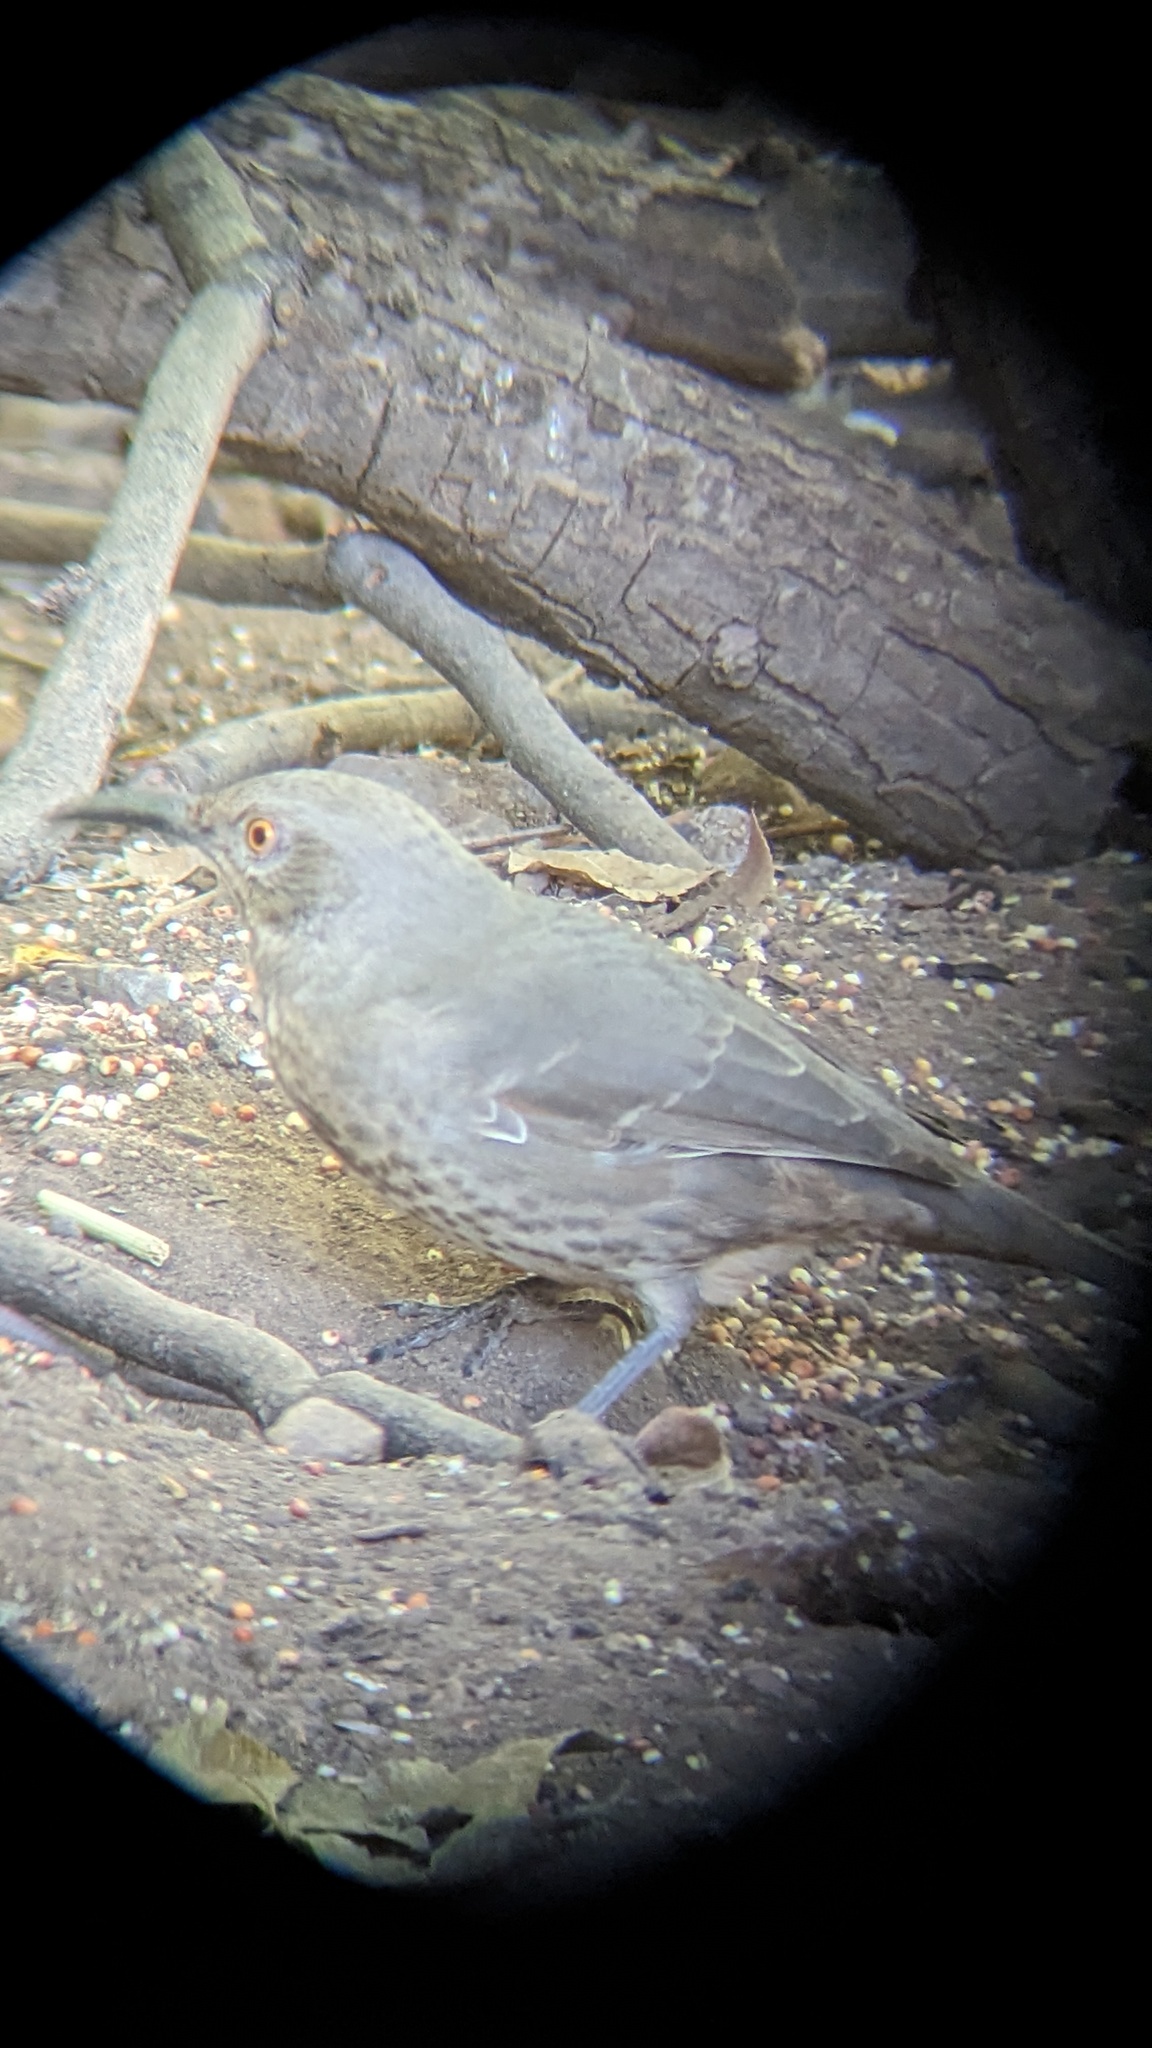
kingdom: Animalia
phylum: Chordata
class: Aves
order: Passeriformes
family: Mimidae
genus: Toxostoma
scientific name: Toxostoma curvirostre
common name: Curve-billed thrasher
